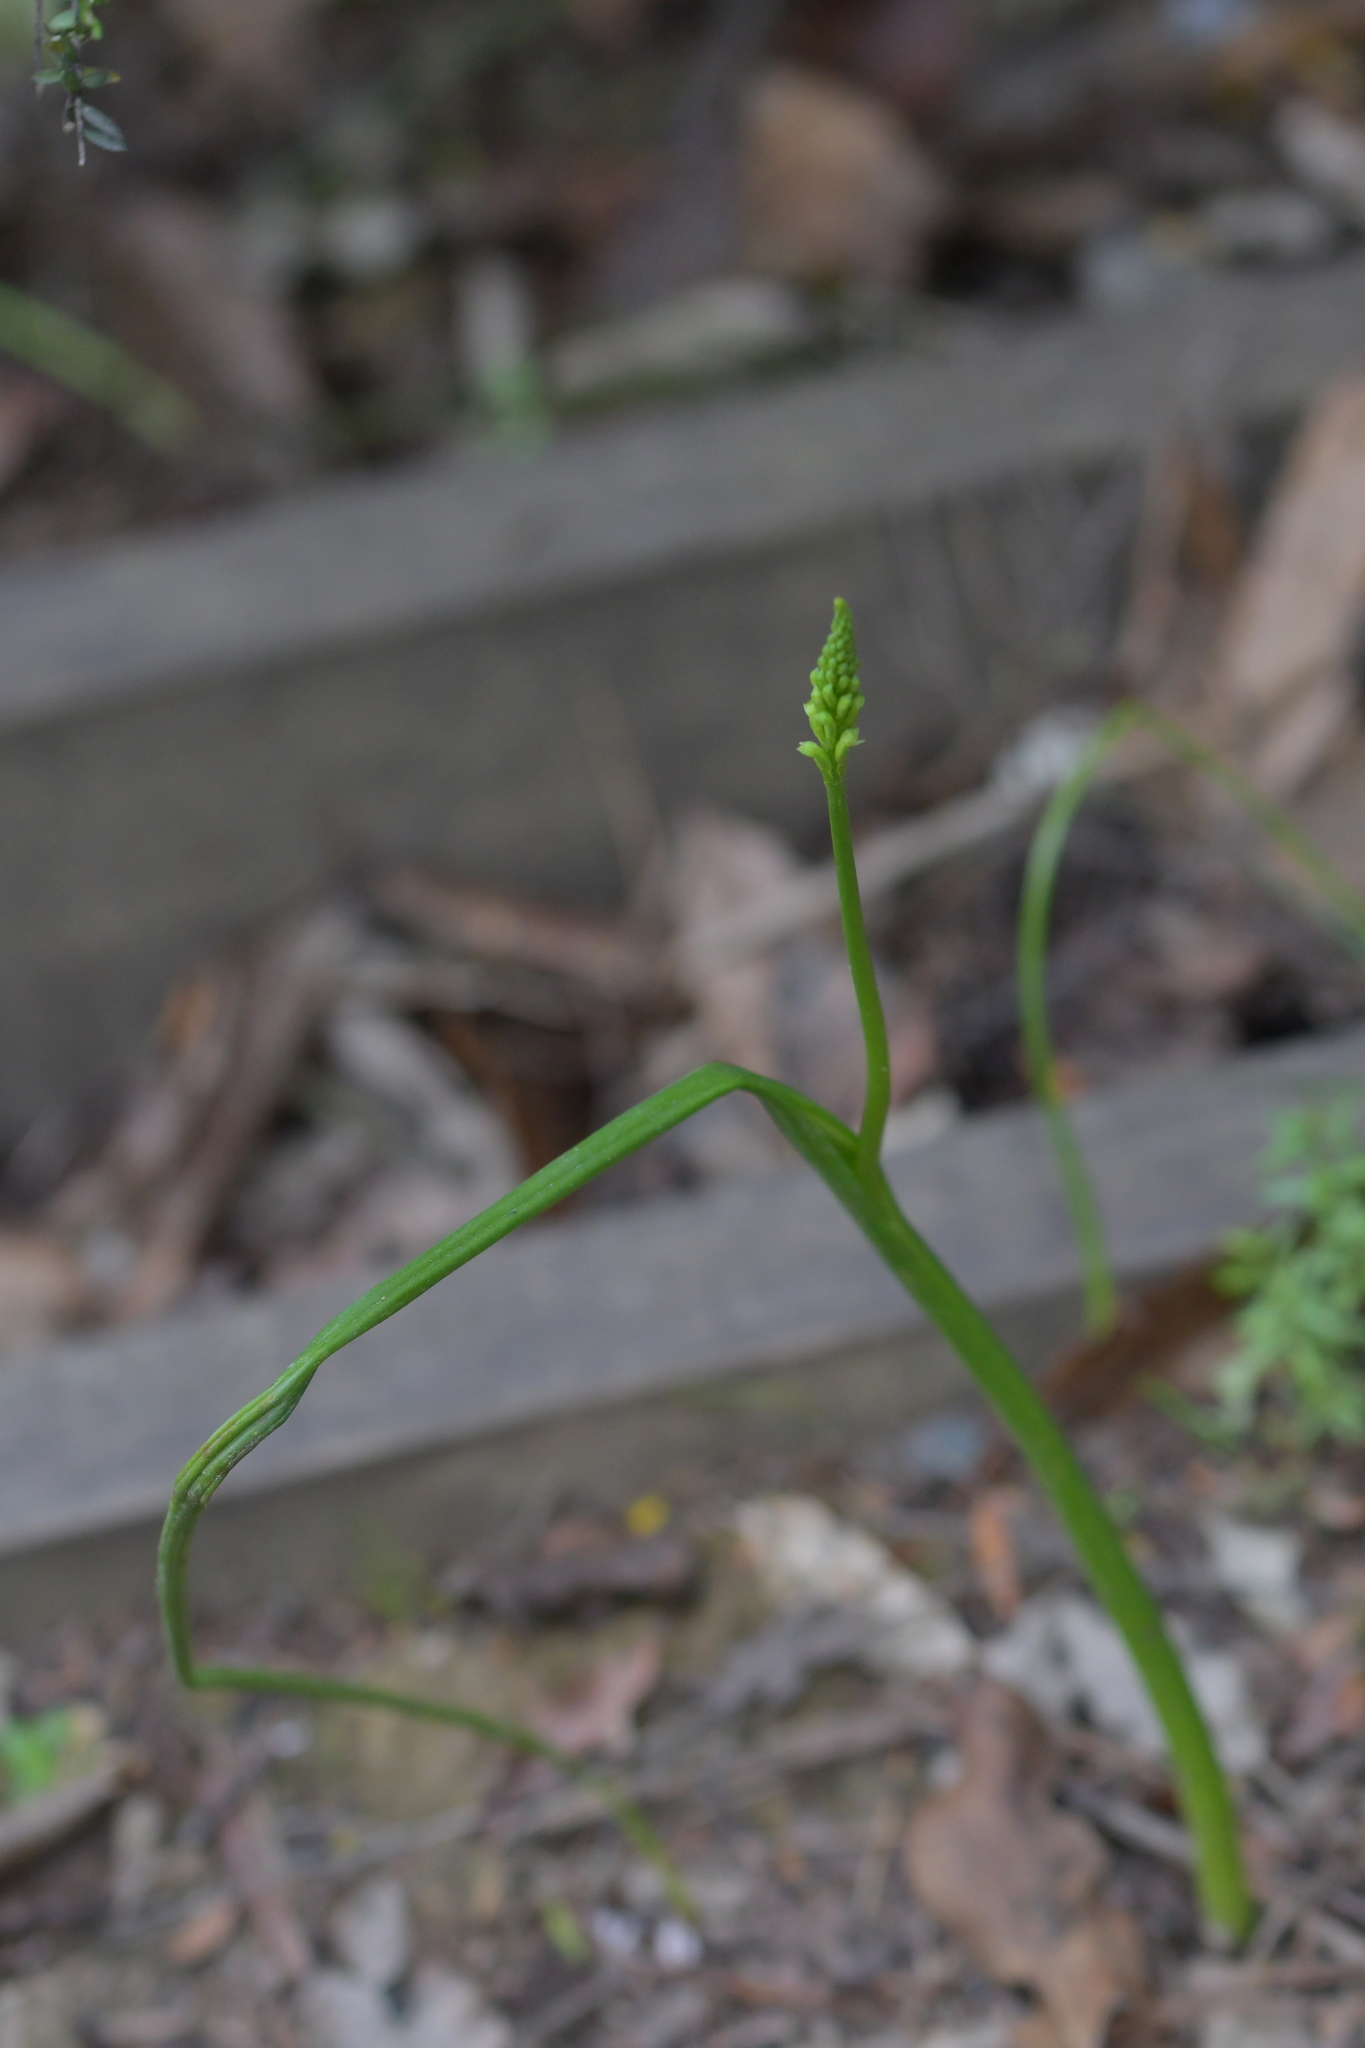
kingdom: Plantae
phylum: Tracheophyta
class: Liliopsida
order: Asparagales
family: Orchidaceae
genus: Microtis
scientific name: Microtis unifolia
